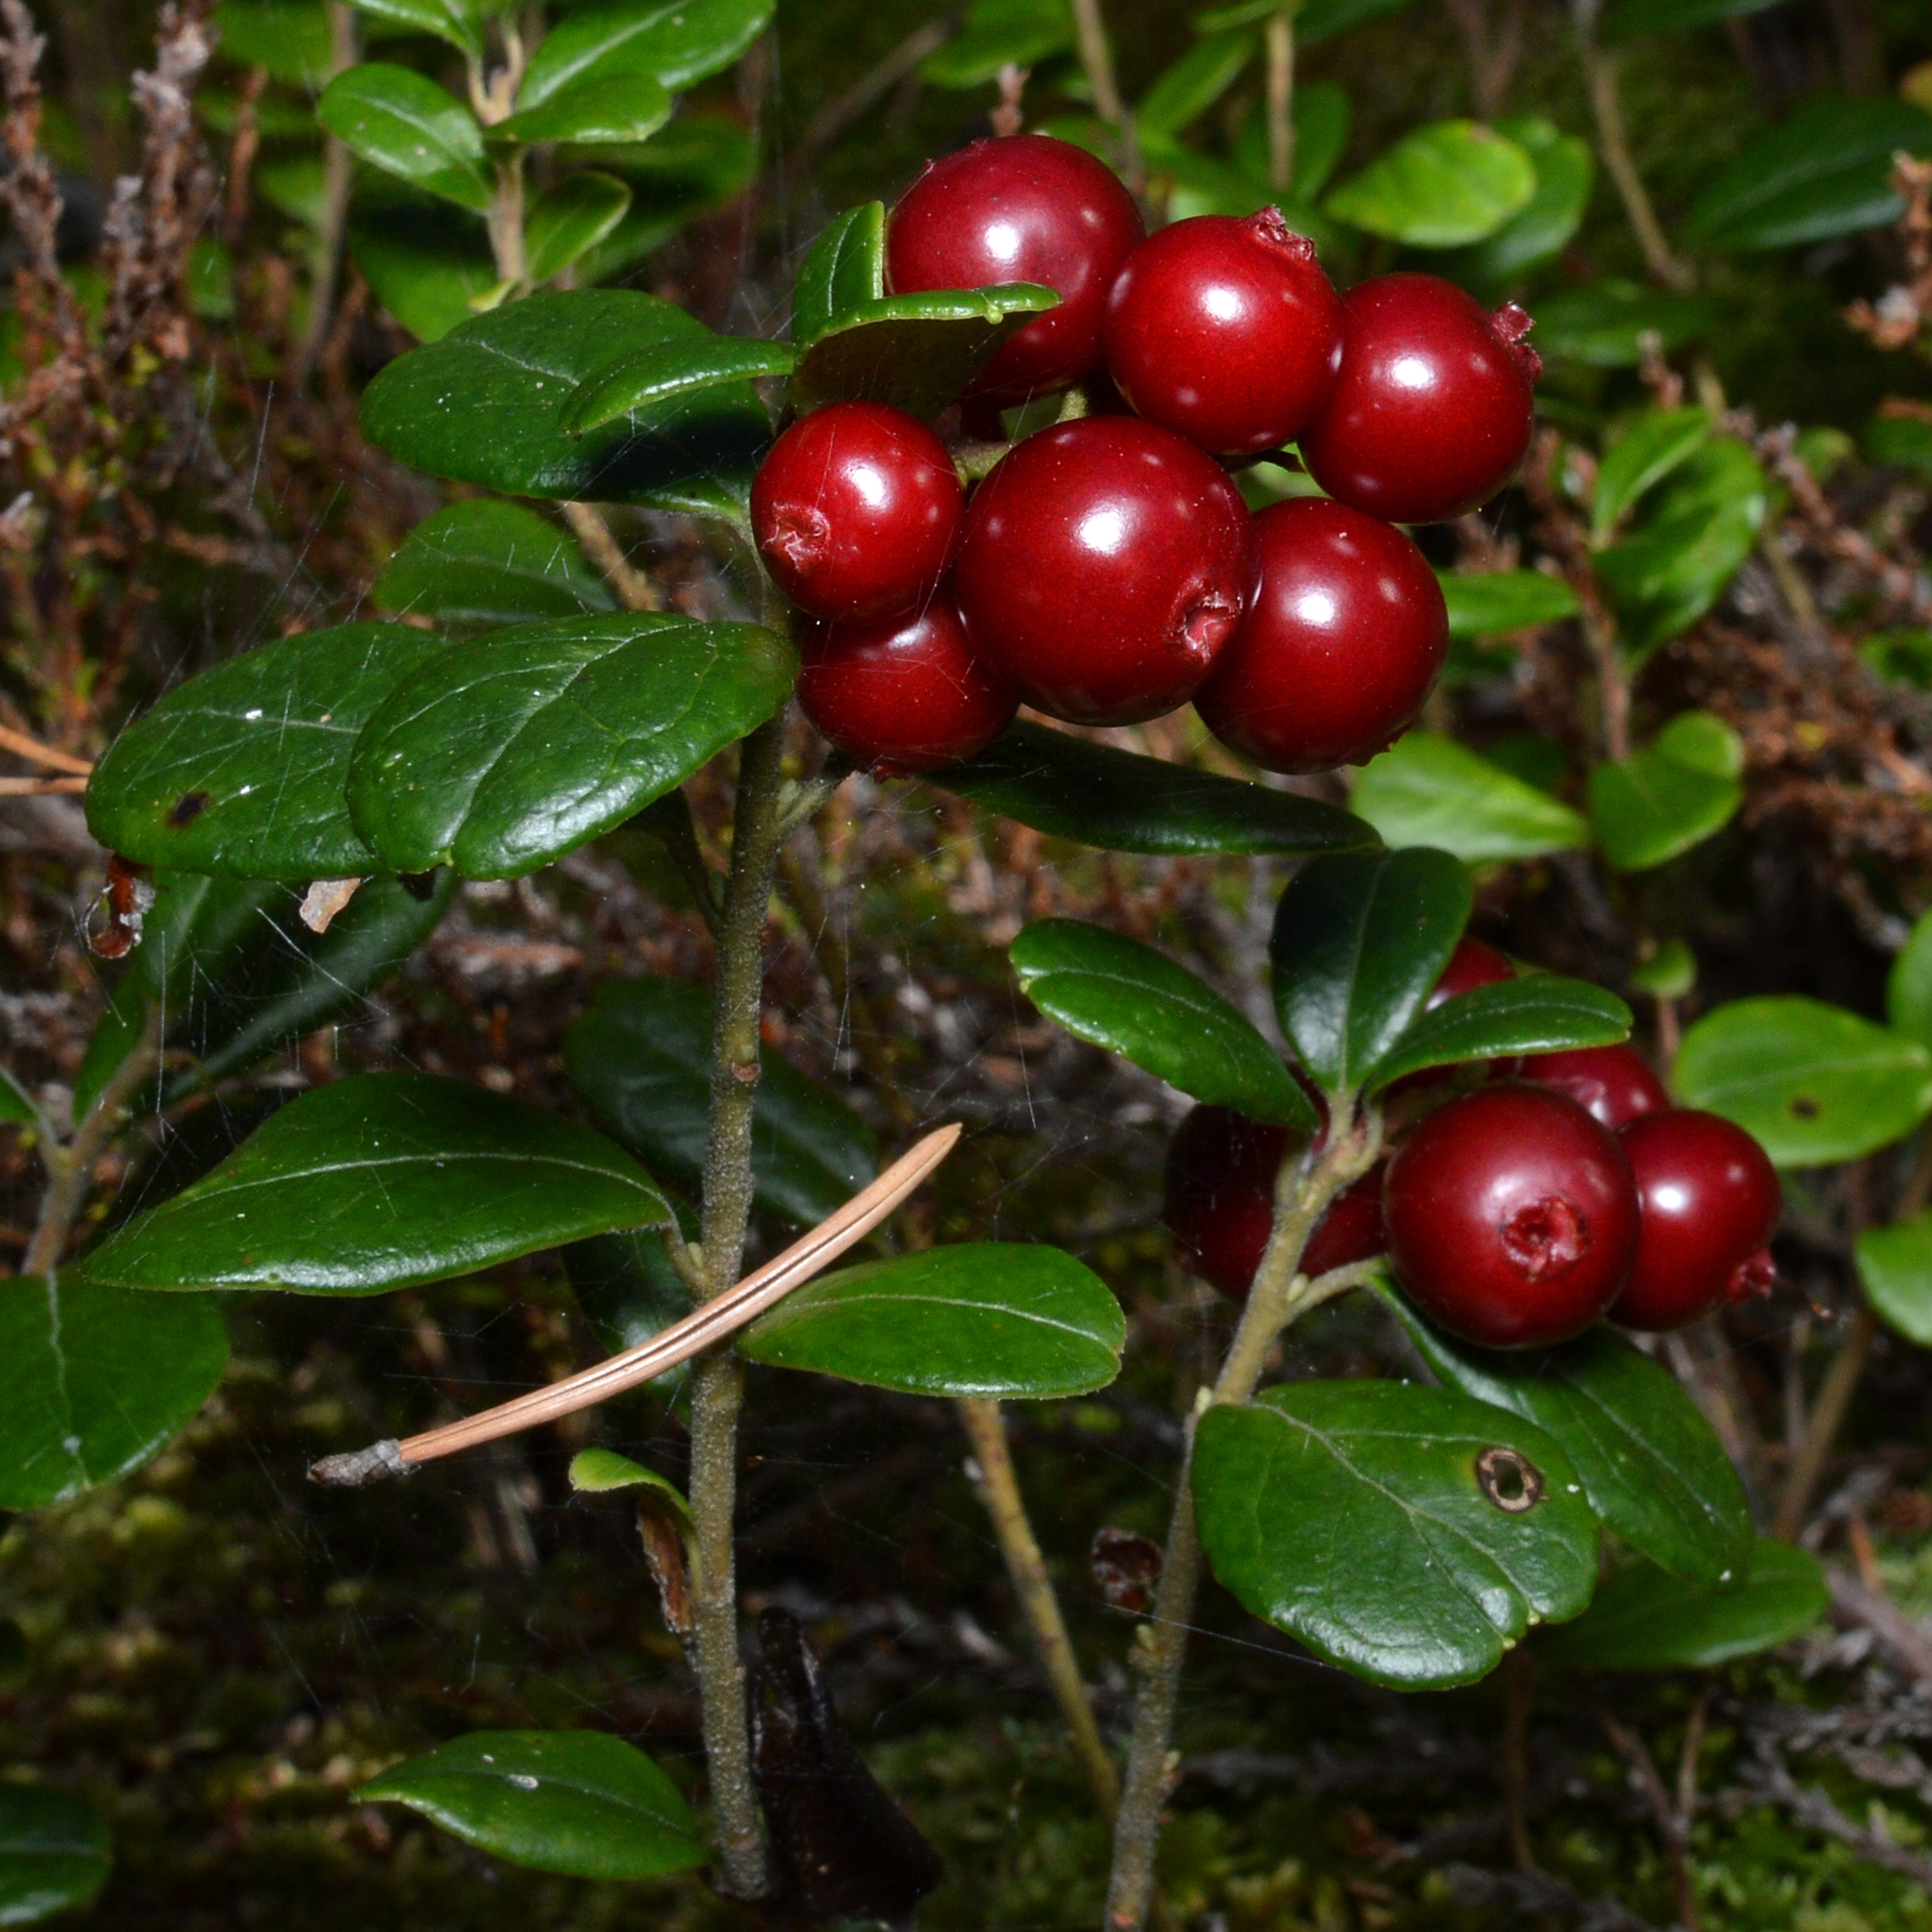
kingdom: Plantae
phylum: Tracheophyta
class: Magnoliopsida
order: Ericales
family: Ericaceae
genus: Vaccinium
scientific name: Vaccinium vitis-idaea
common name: Cowberry
